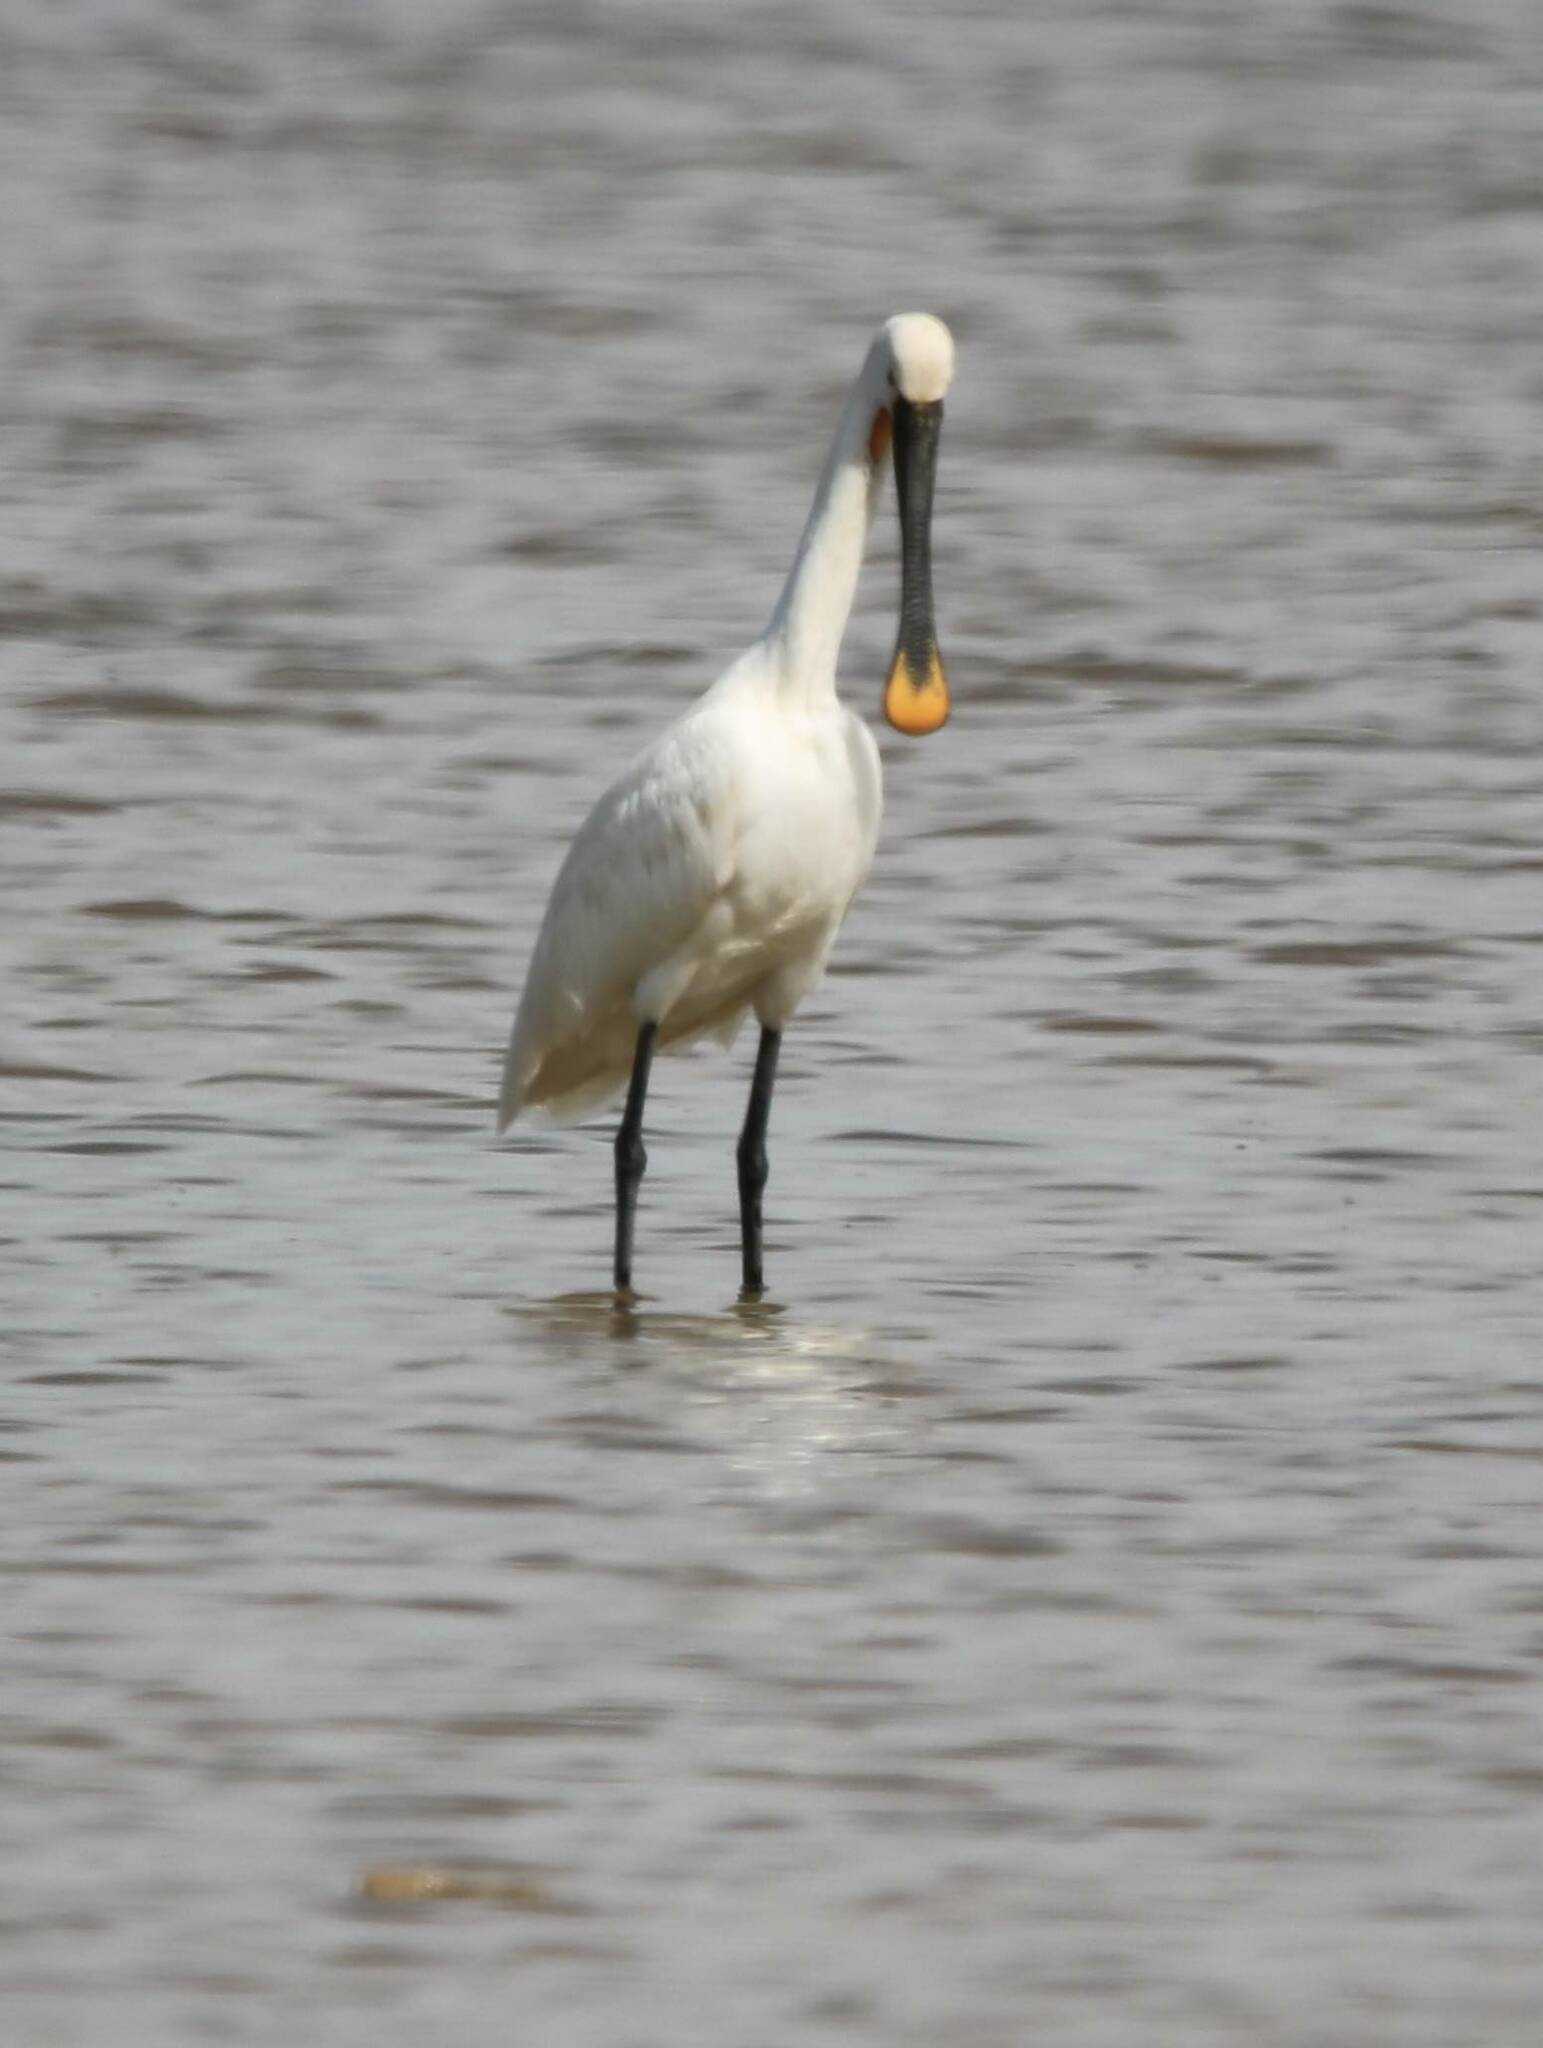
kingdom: Animalia
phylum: Chordata
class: Aves
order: Pelecaniformes
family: Threskiornithidae
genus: Platalea
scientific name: Platalea leucorodia
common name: Eurasian spoonbill
